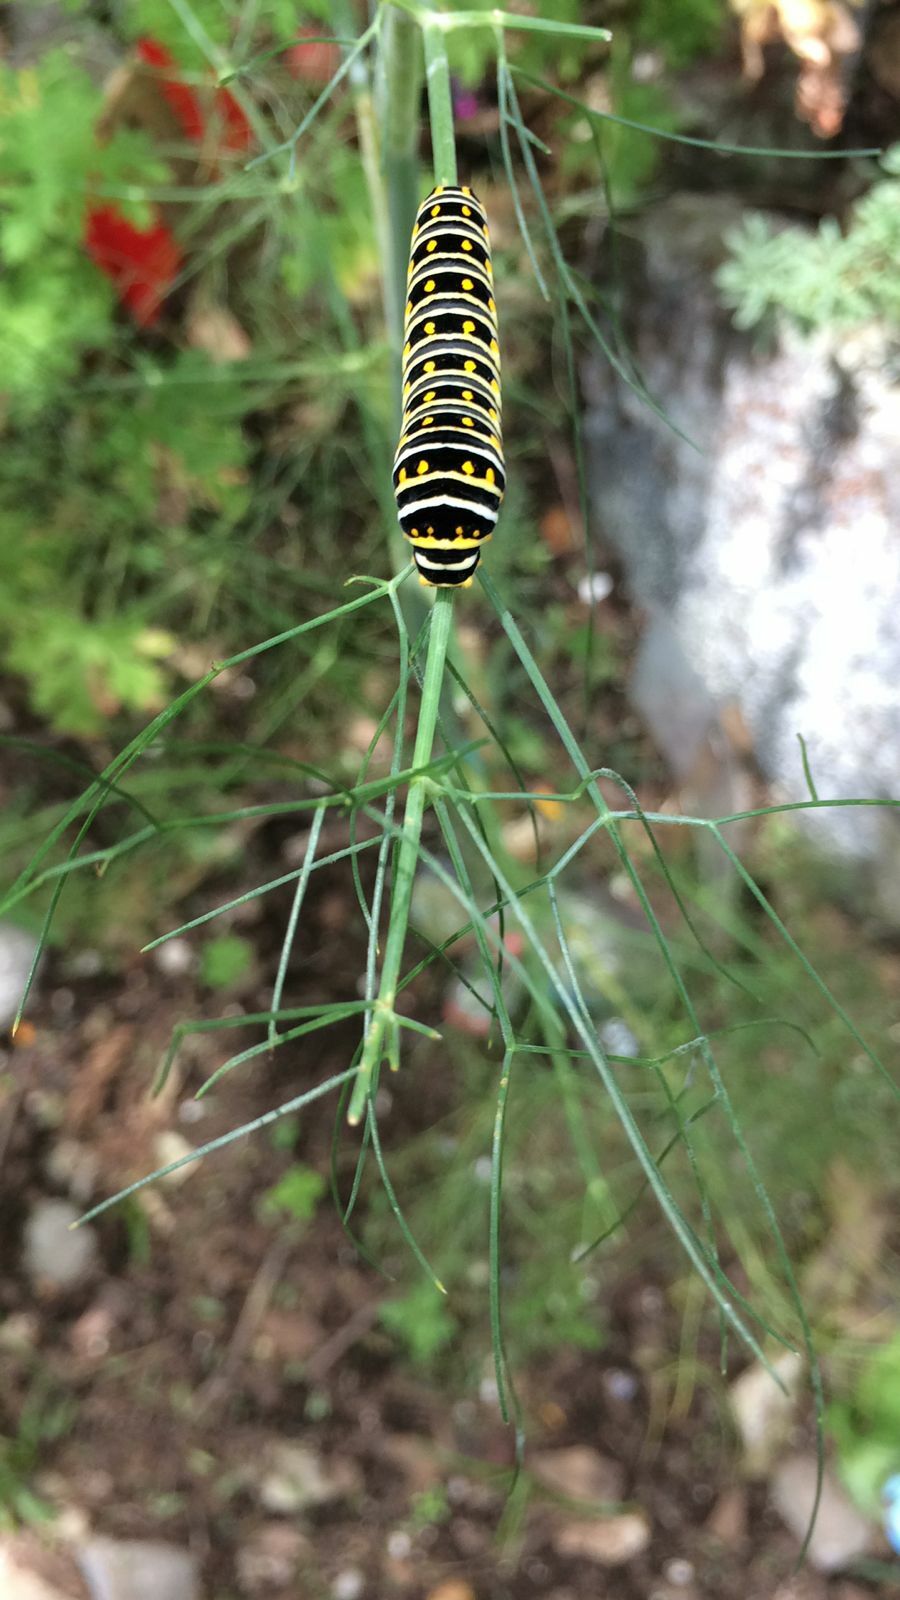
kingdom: Animalia
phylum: Arthropoda
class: Insecta
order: Lepidoptera
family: Papilionidae
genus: Papilio
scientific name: Papilio polyxenes
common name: Black swallowtail
